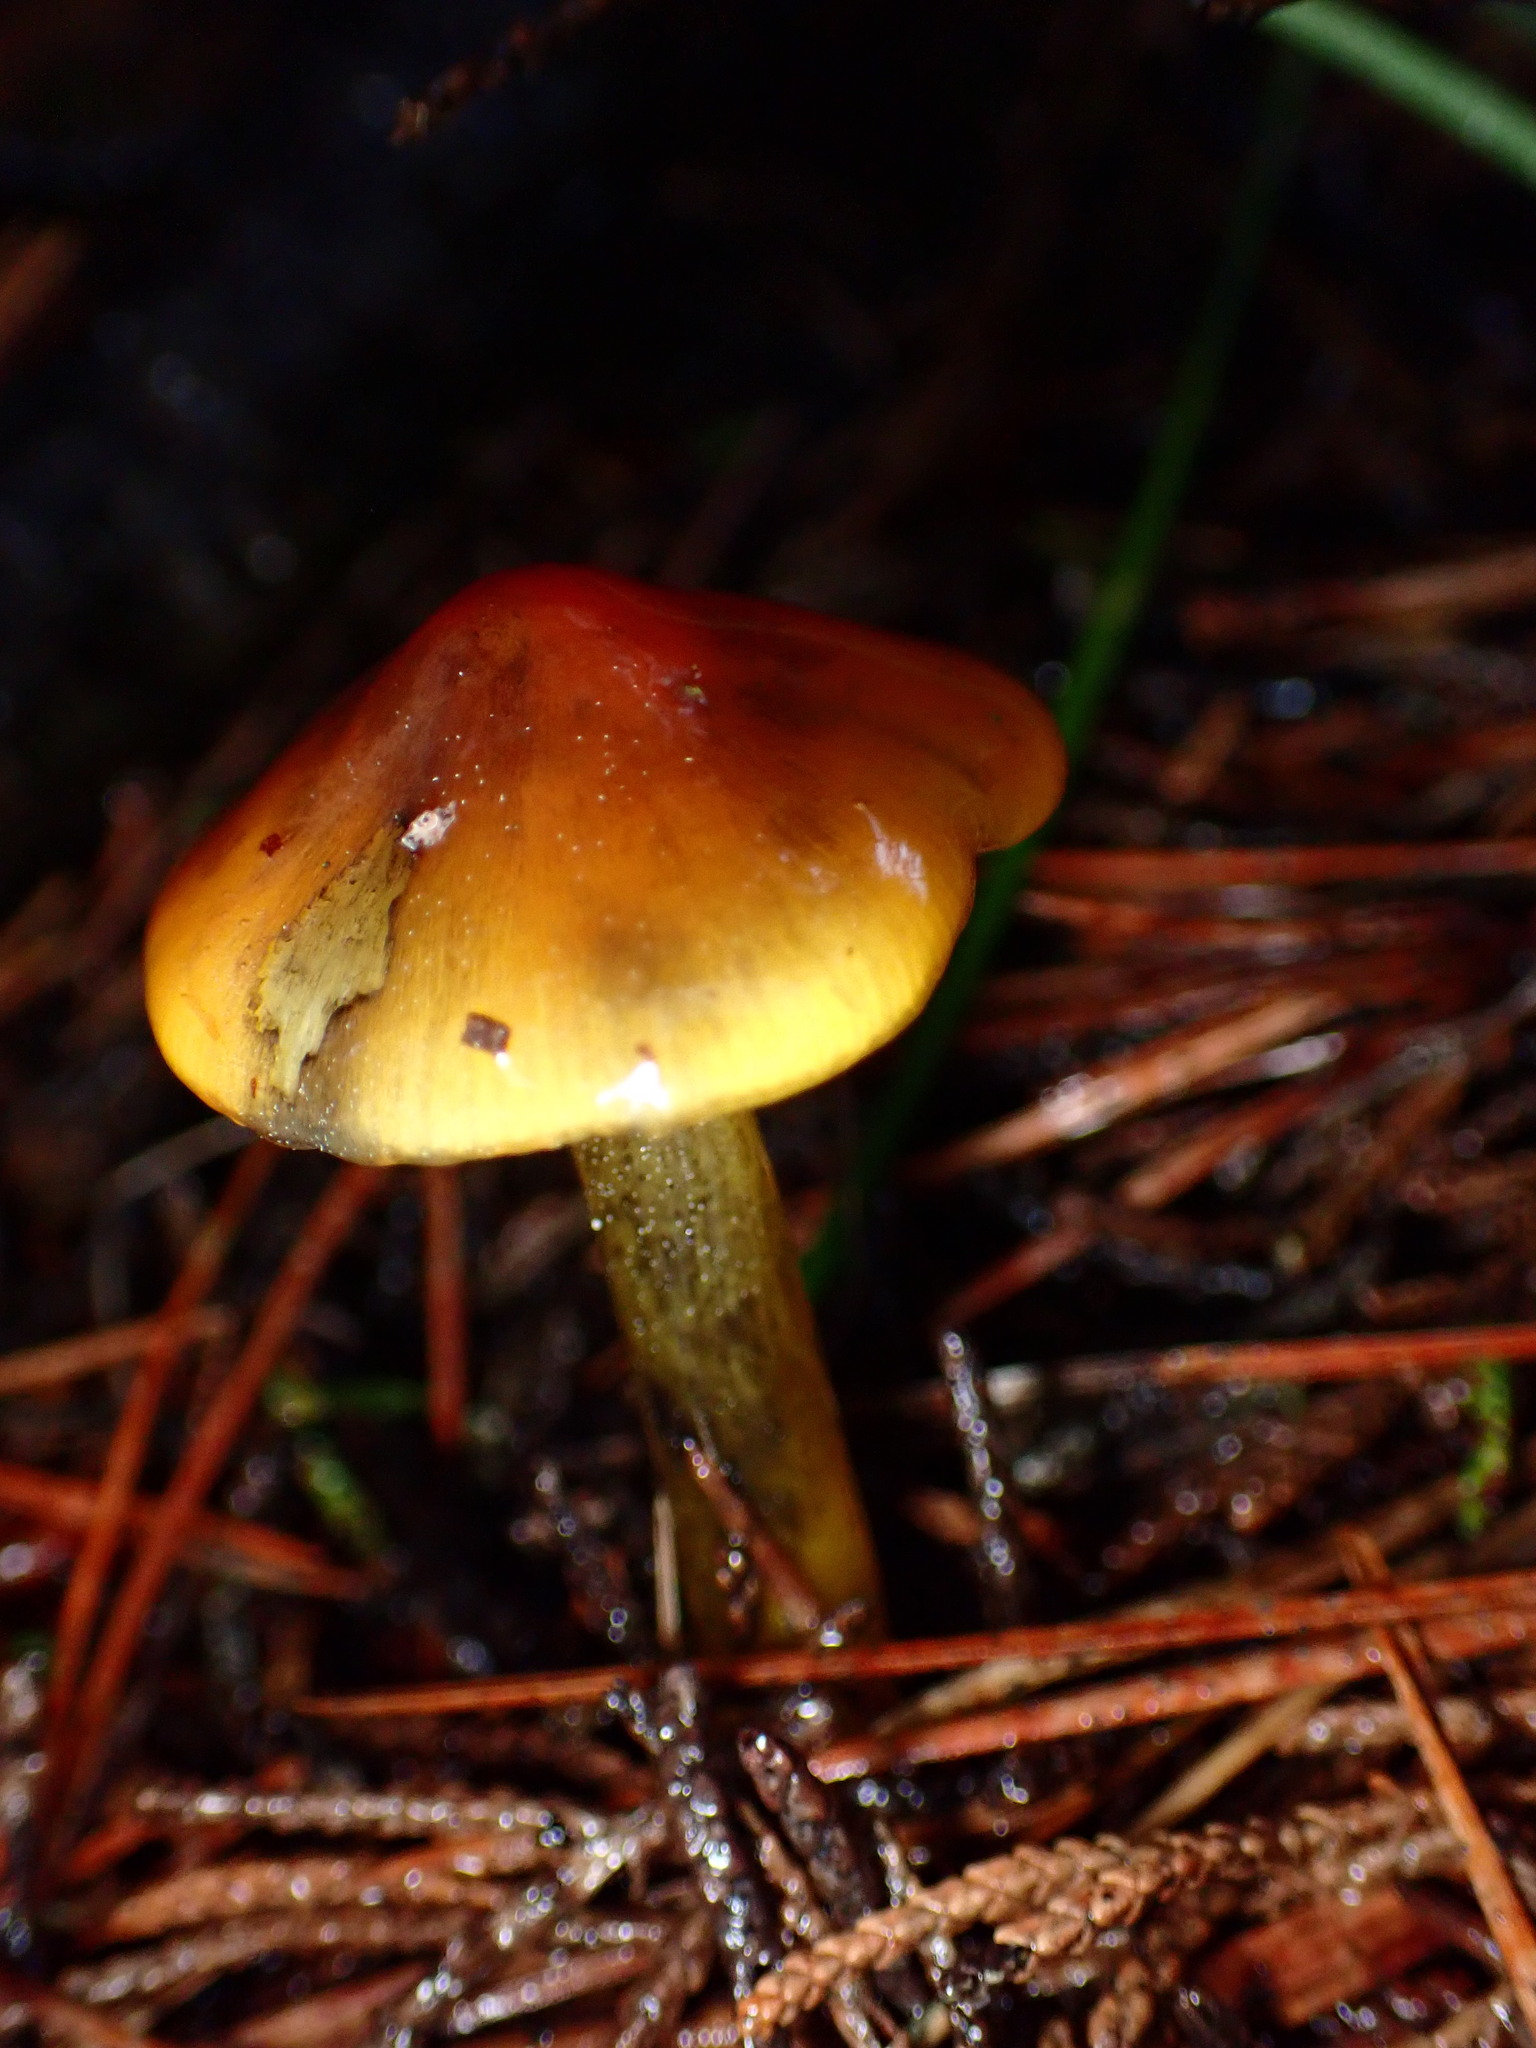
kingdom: Fungi
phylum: Basidiomycota
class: Agaricomycetes
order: Agaricales
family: Hygrophoraceae
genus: Hygrocybe
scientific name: Hygrocybe singeri
